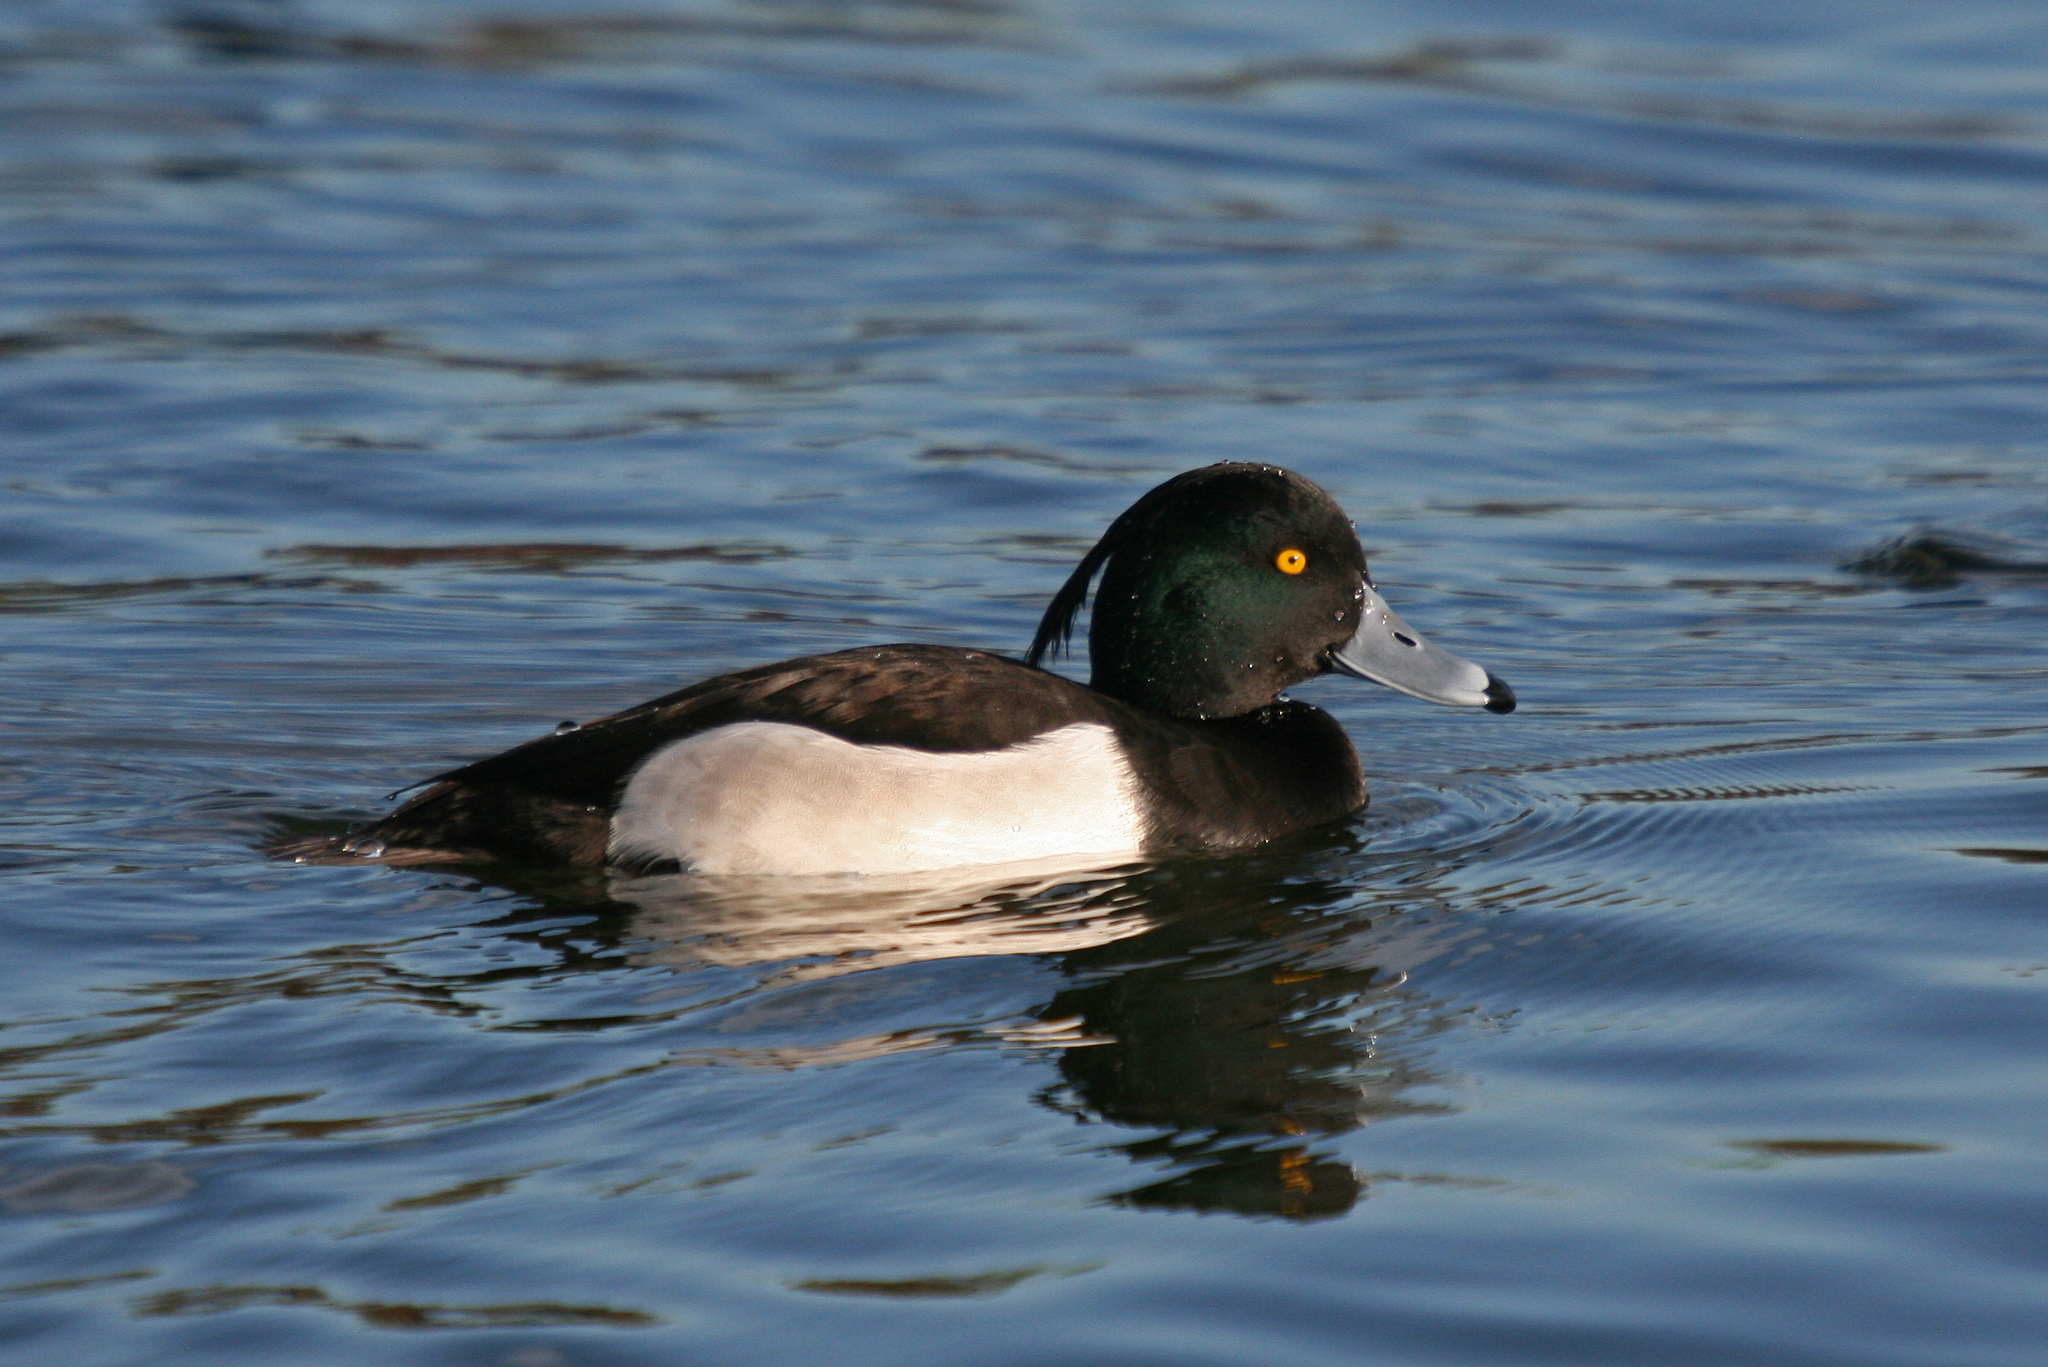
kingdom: Animalia
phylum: Chordata
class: Aves
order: Anseriformes
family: Anatidae
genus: Aythya
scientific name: Aythya fuligula
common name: Tufted duck
